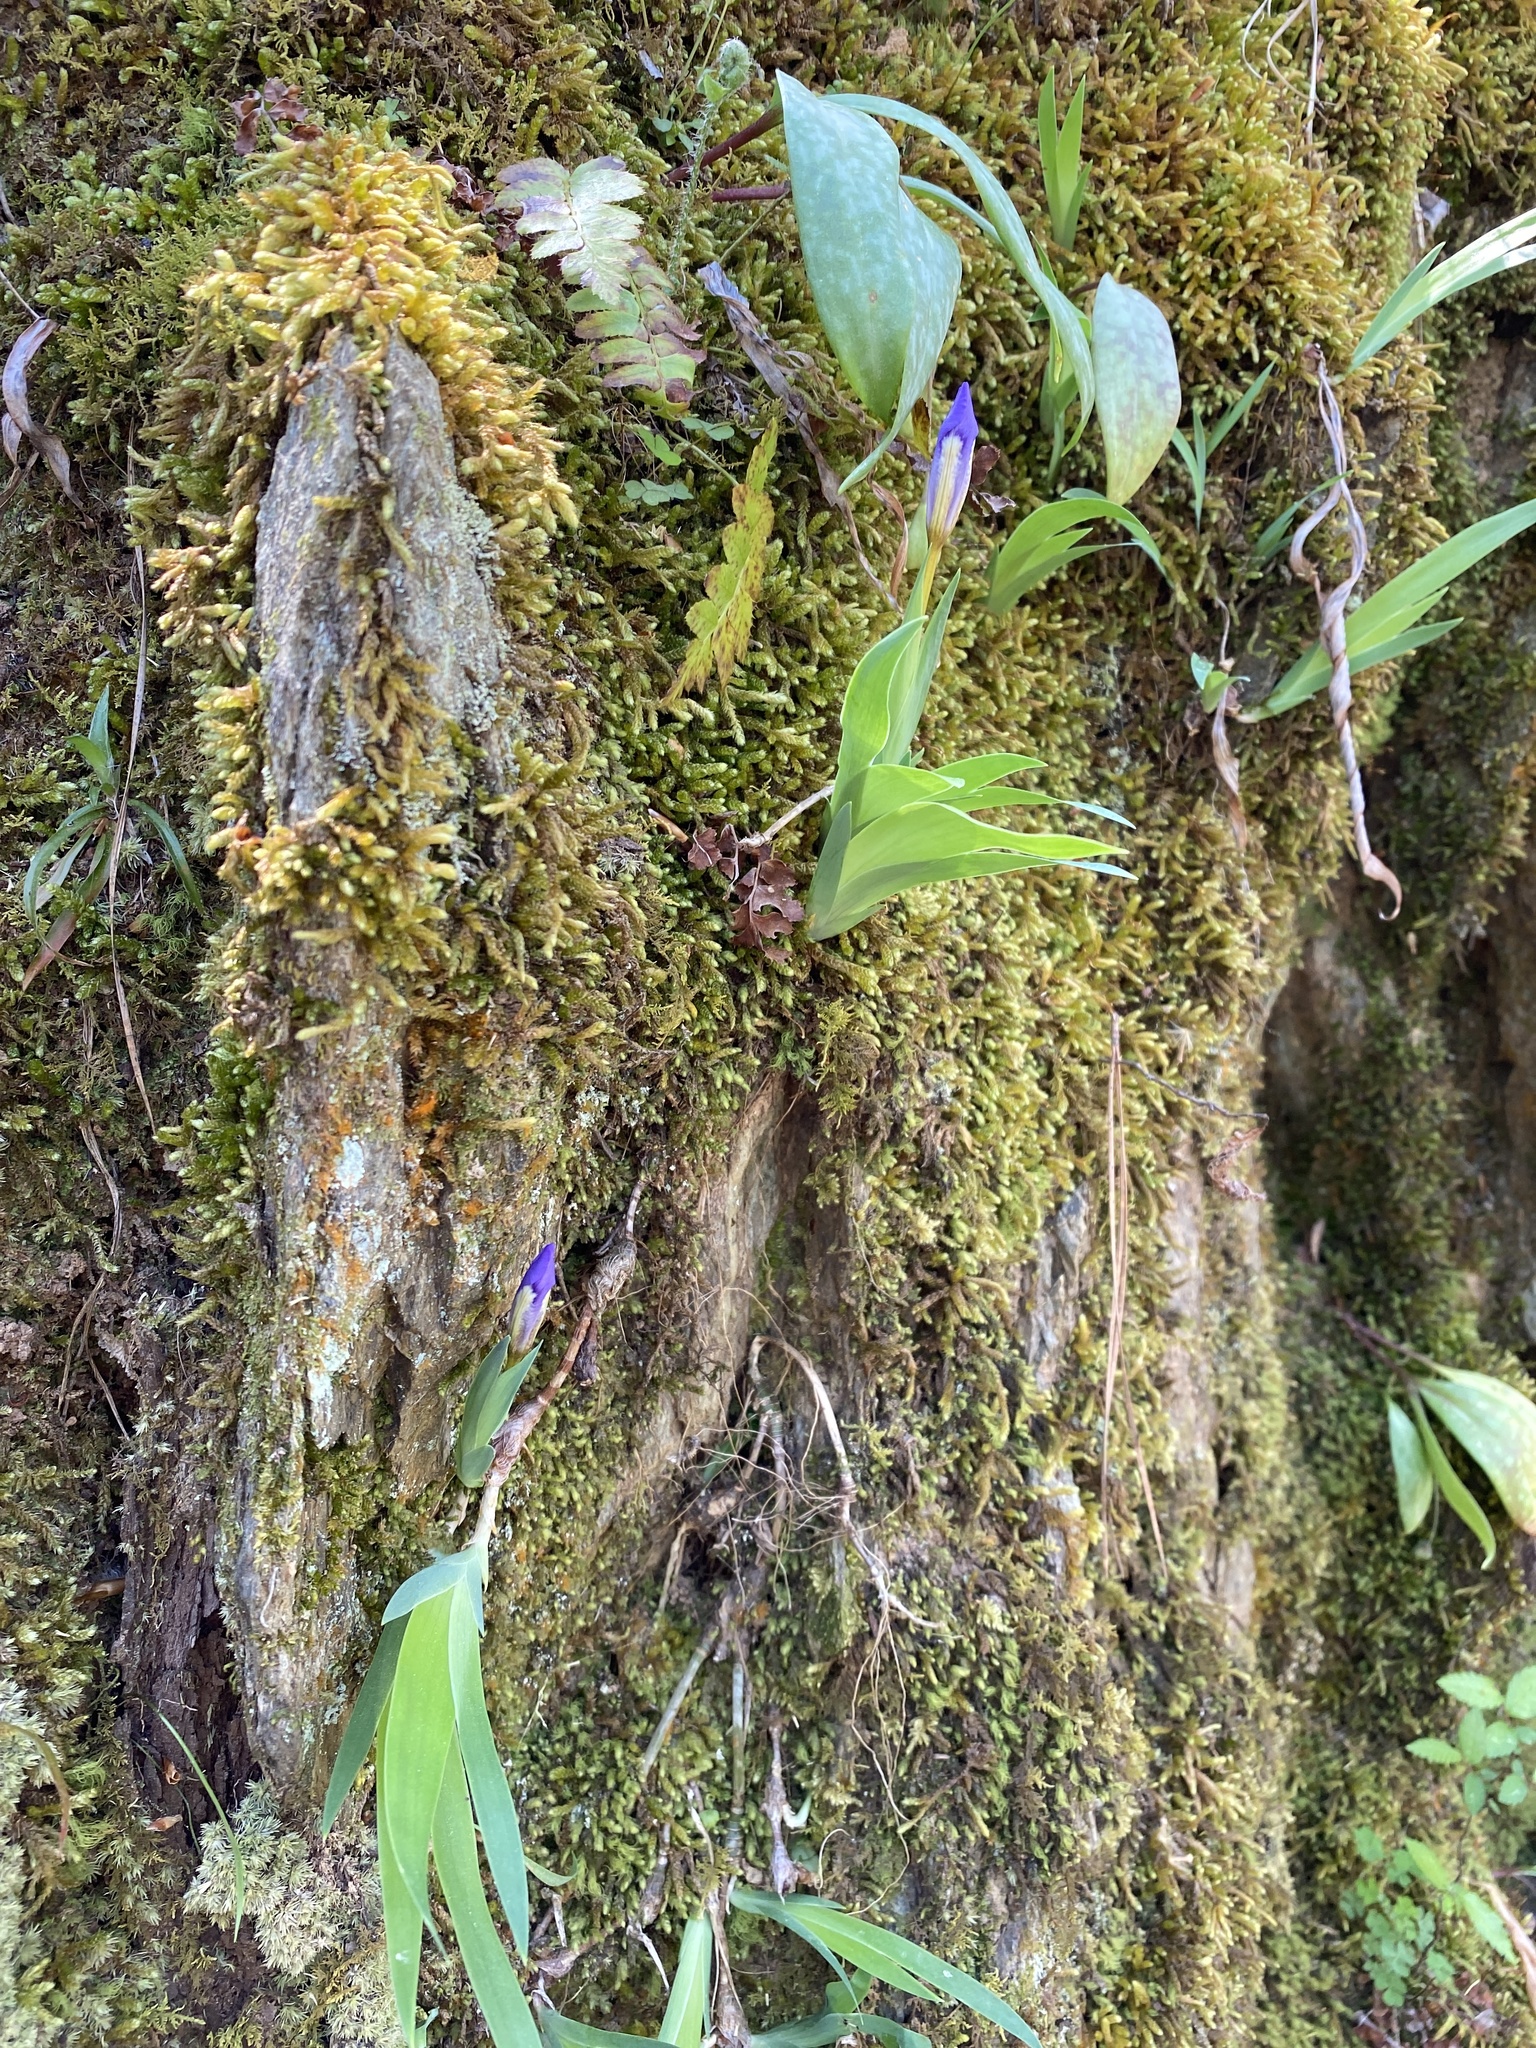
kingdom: Plantae
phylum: Tracheophyta
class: Liliopsida
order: Asparagales
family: Iridaceae
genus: Iris
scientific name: Iris cristata
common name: Crested iris
